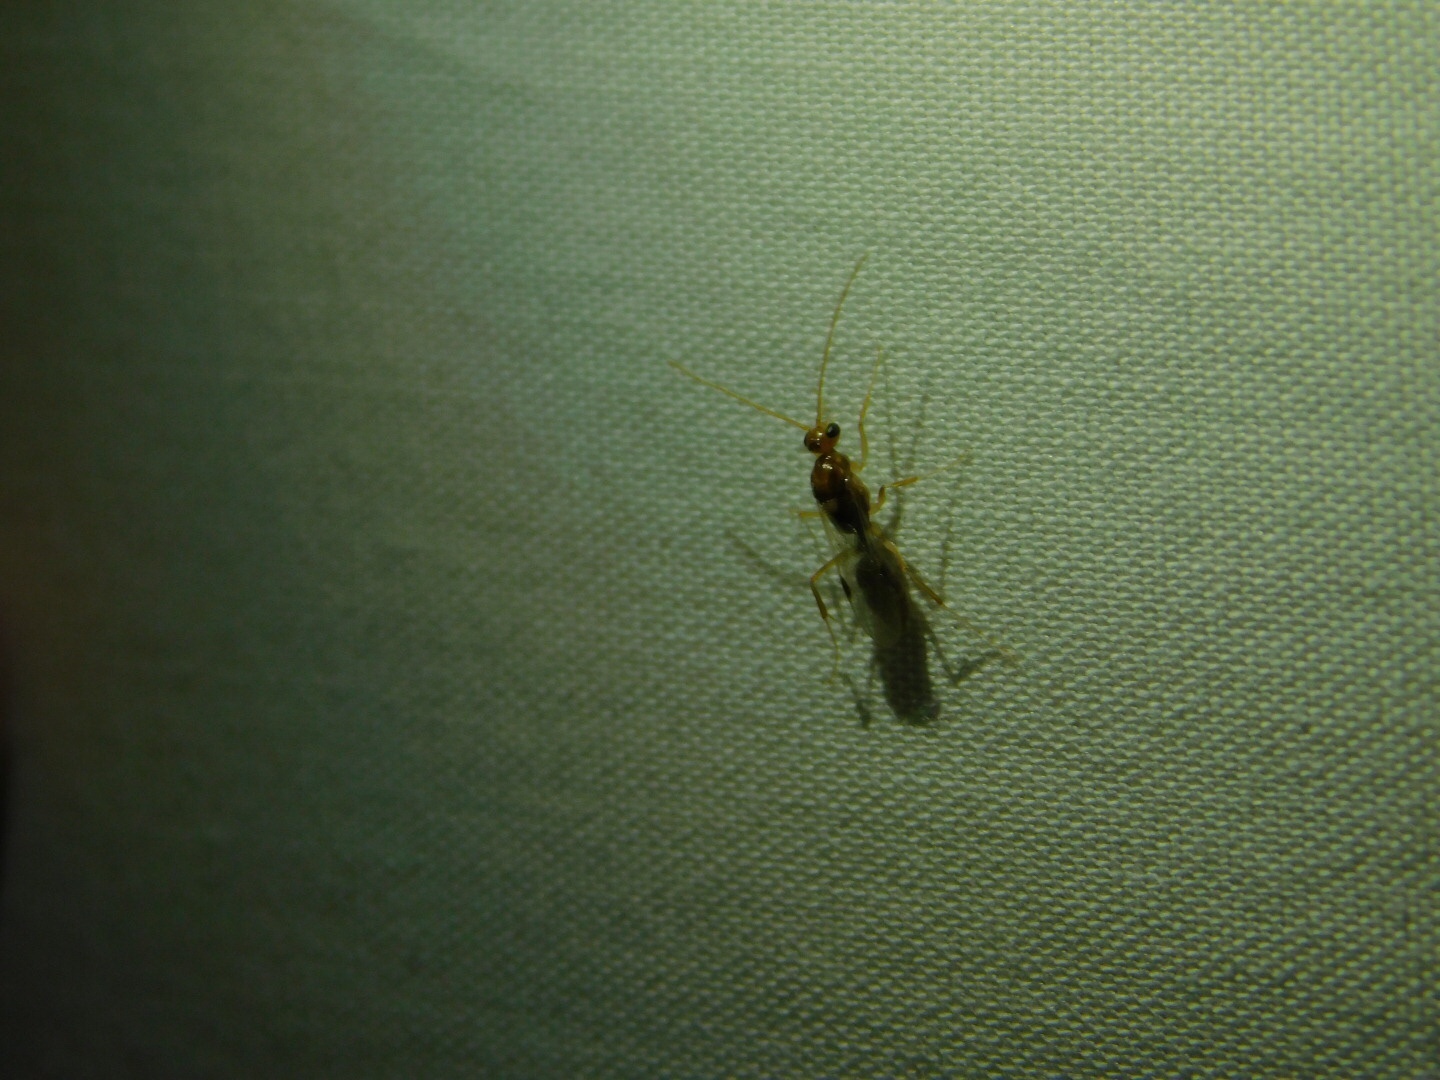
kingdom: Animalia
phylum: Arthropoda
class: Insecta
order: Hymenoptera
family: Formicidae
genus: Odontomachus
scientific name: Odontomachus ruginodis
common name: Trapjaw ant
